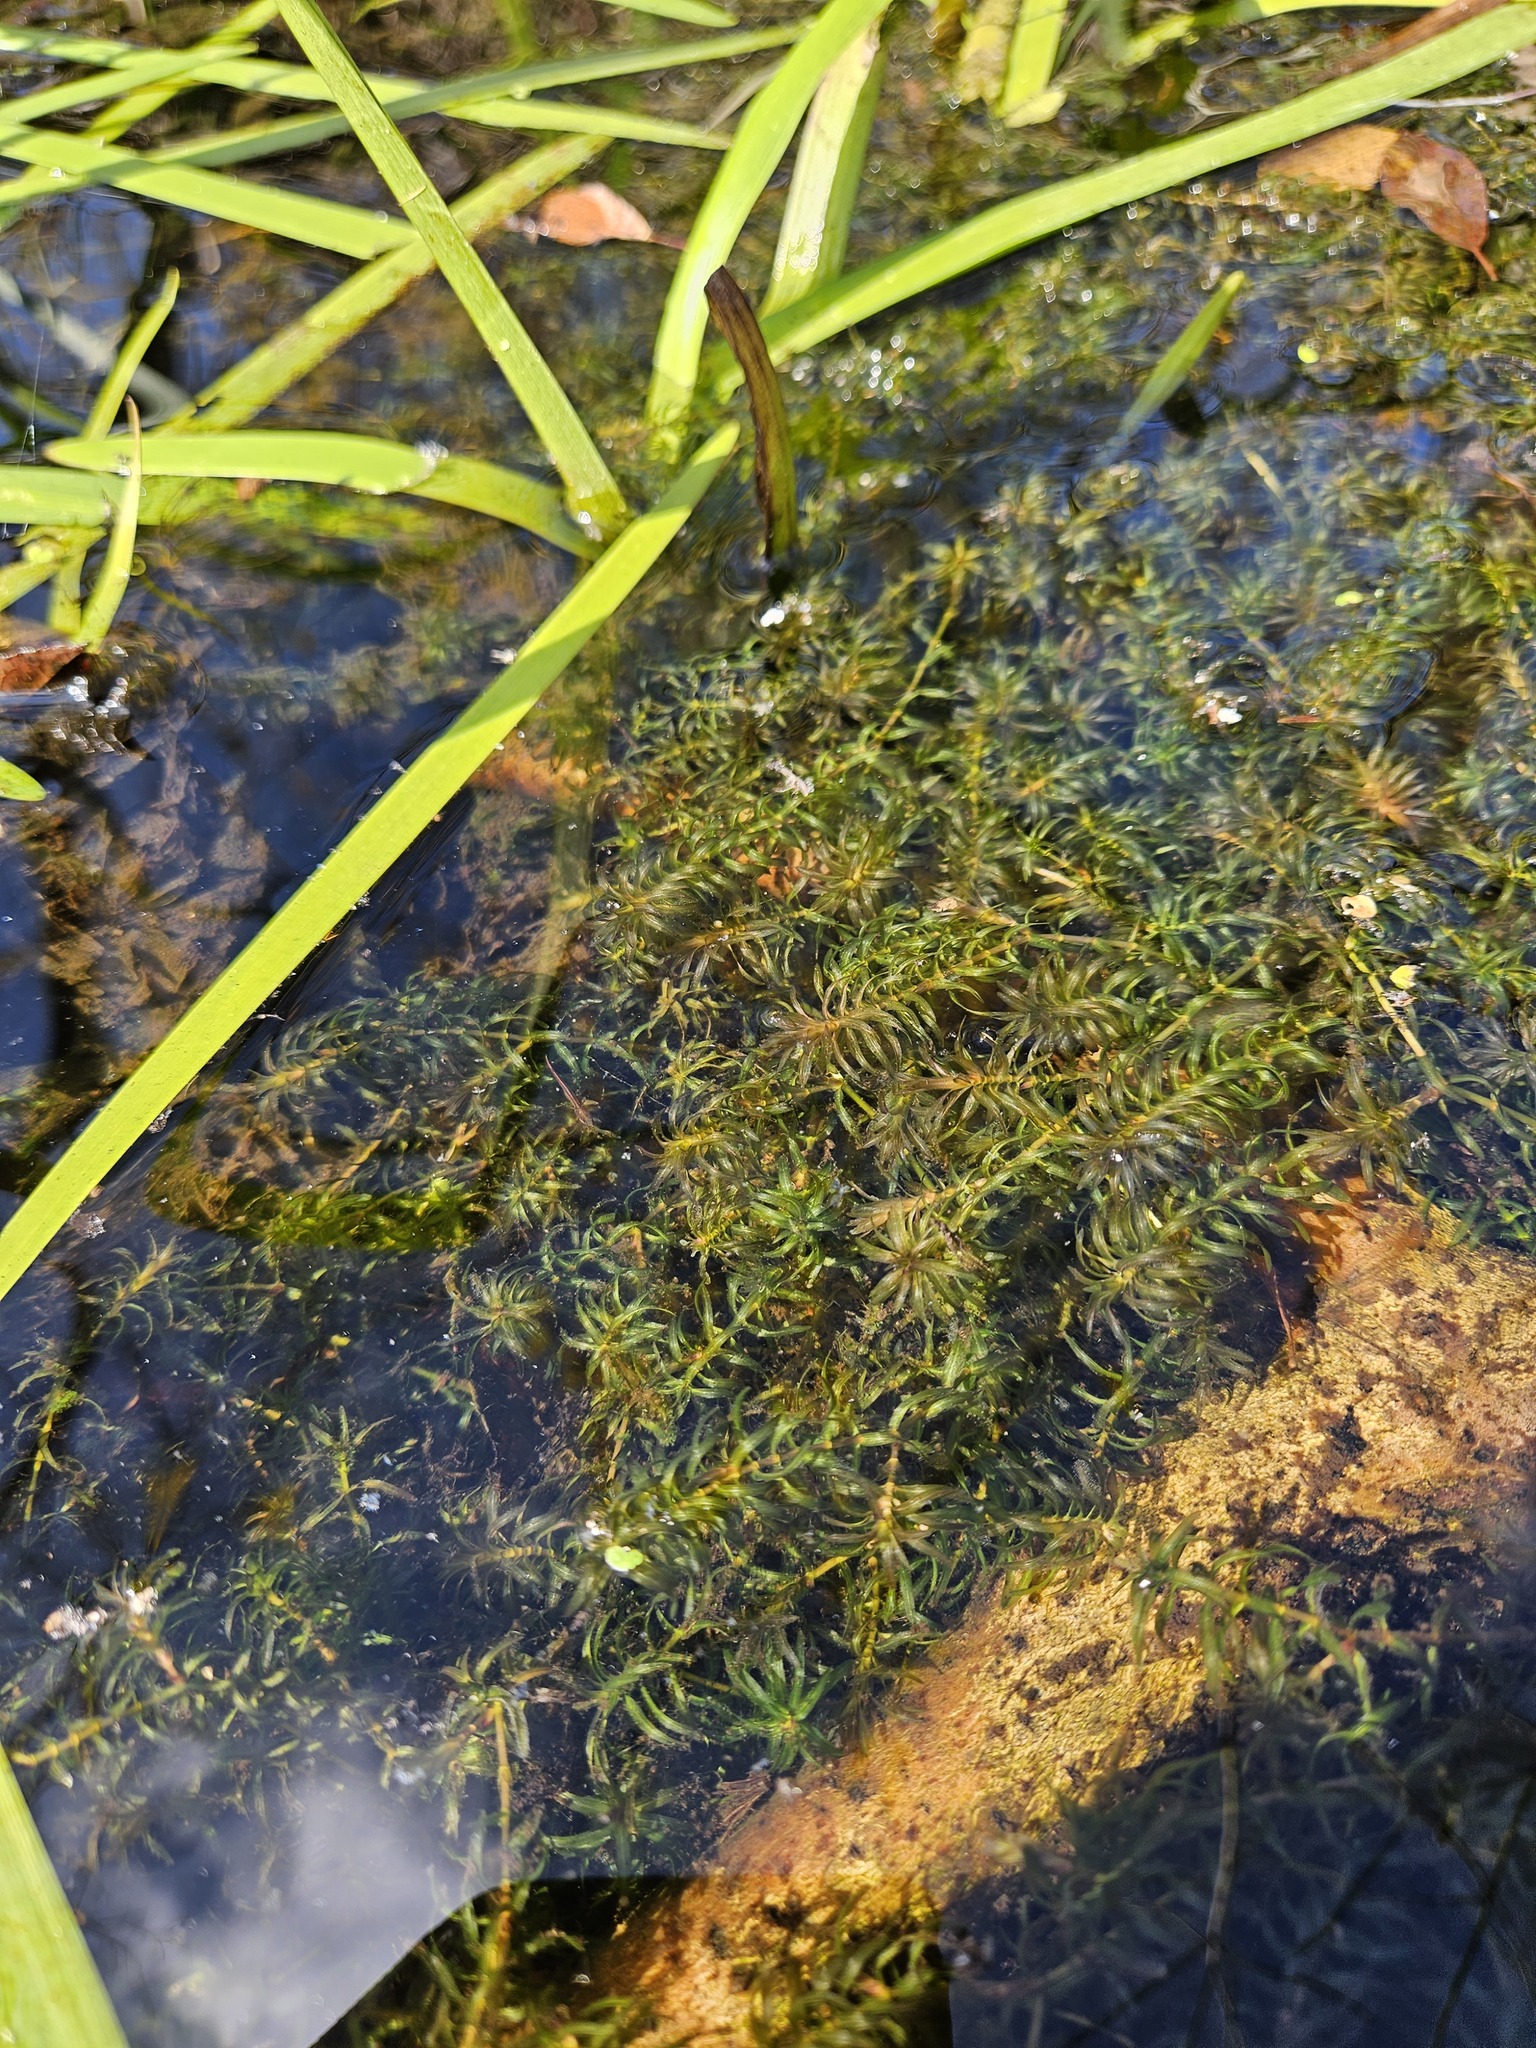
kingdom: Plantae
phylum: Tracheophyta
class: Liliopsida
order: Alismatales
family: Hydrocharitaceae
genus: Elodea
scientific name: Elodea canadensis
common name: Canadian waterweed
